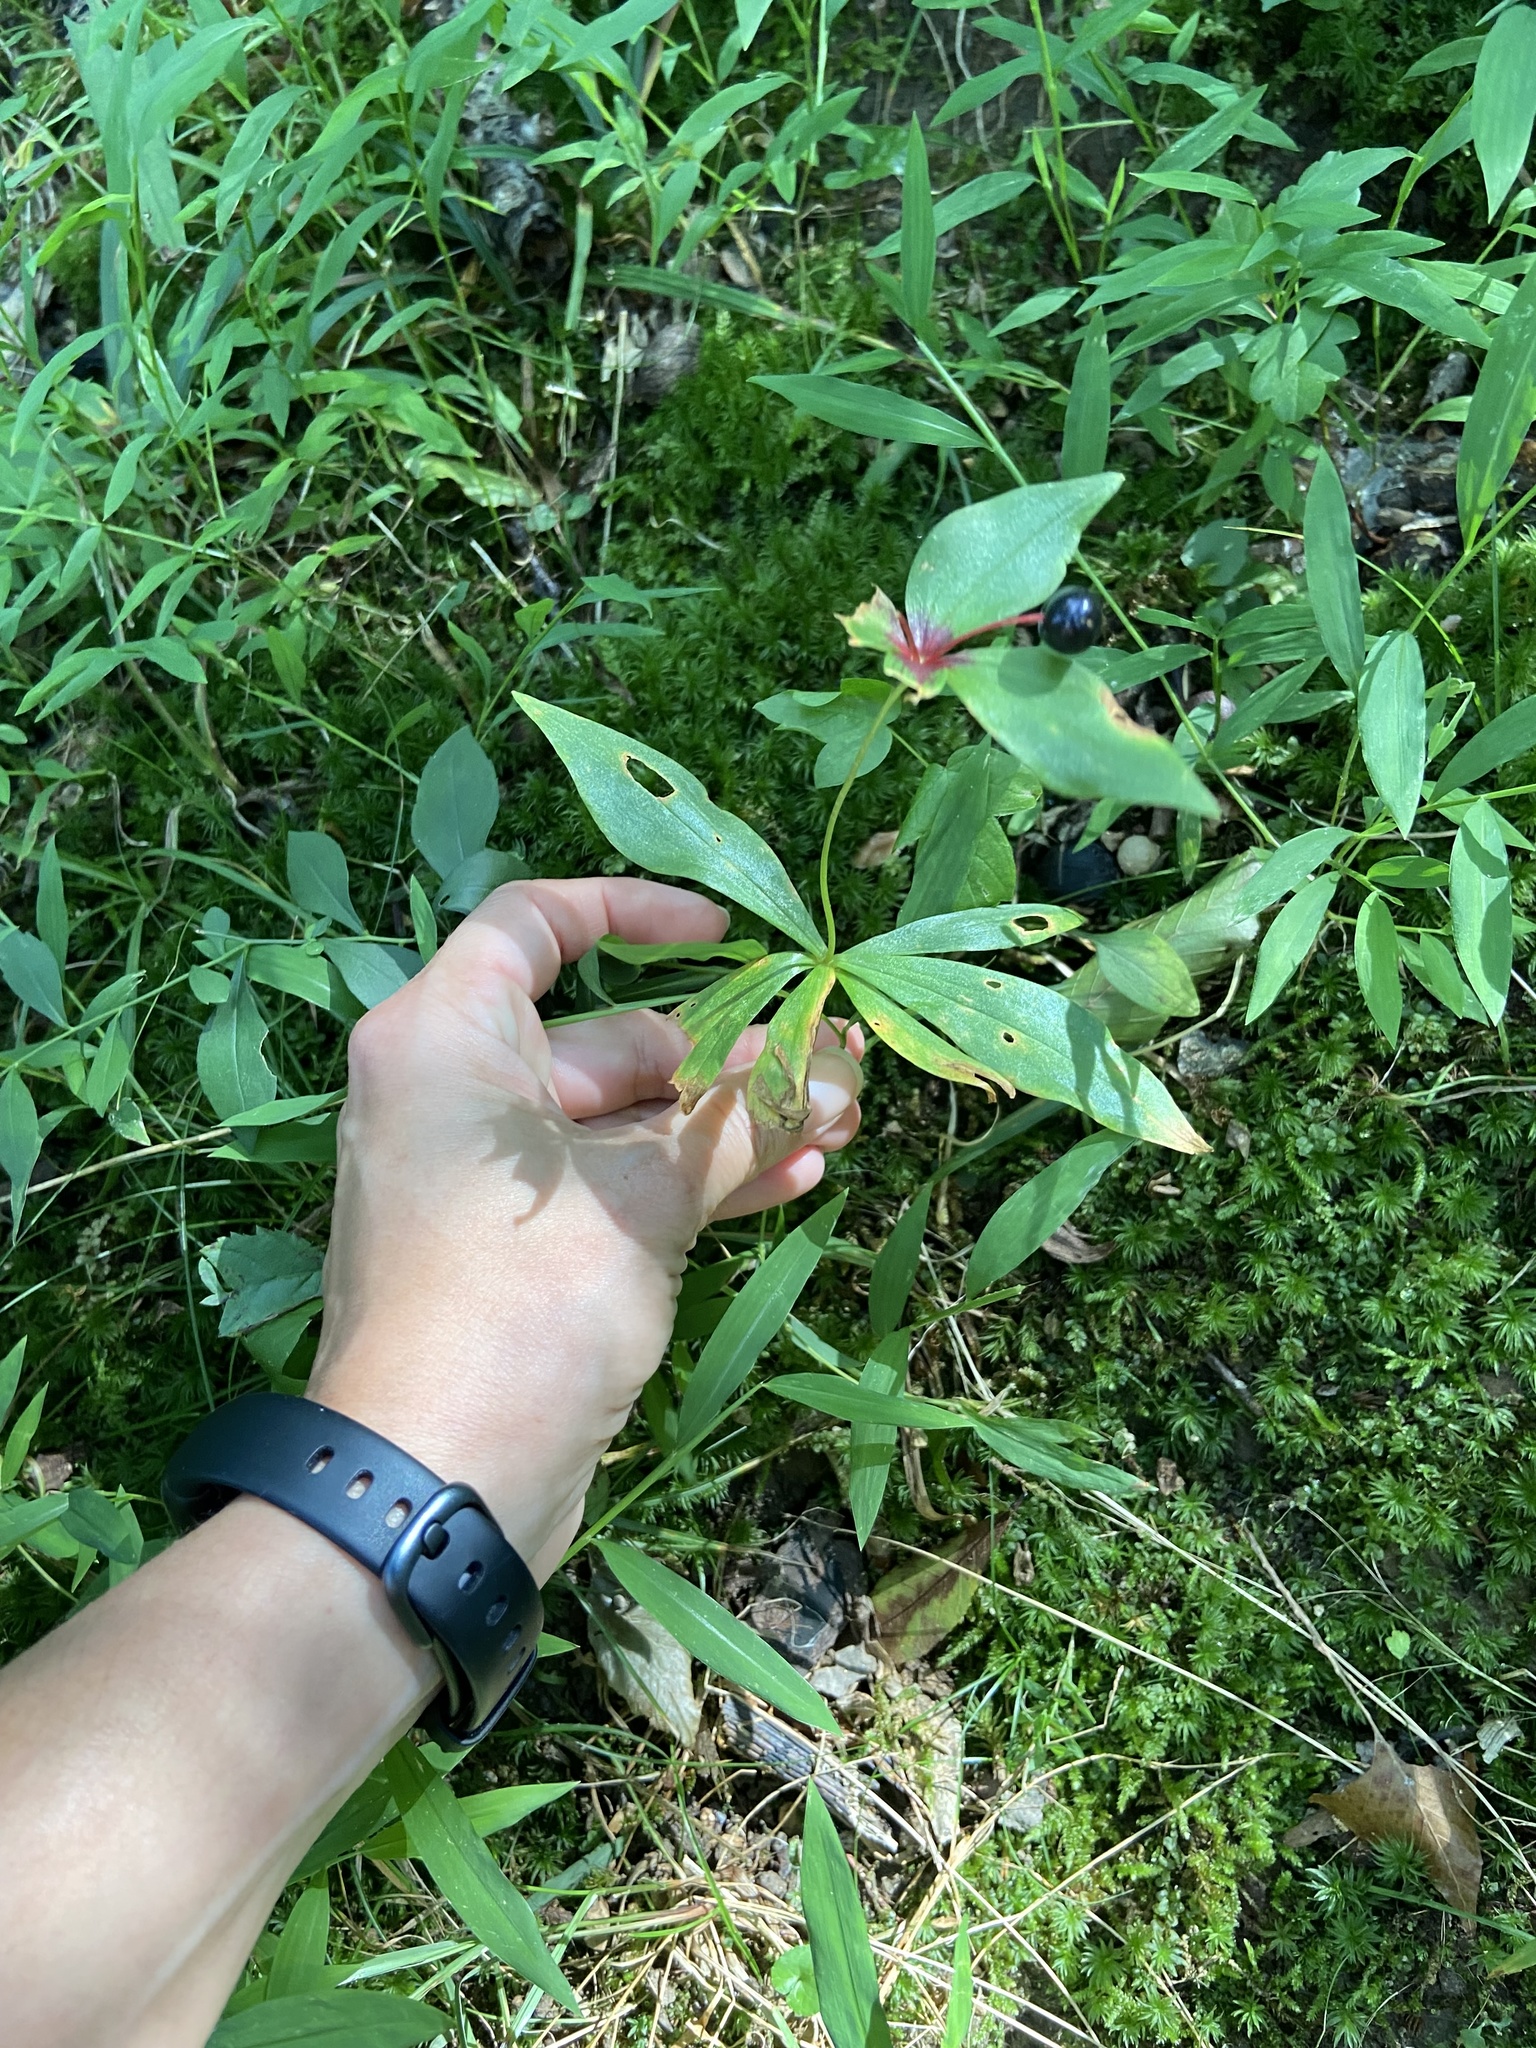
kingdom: Plantae
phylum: Tracheophyta
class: Liliopsida
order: Liliales
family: Liliaceae
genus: Medeola
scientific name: Medeola virginiana
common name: Indian cucumber-root
